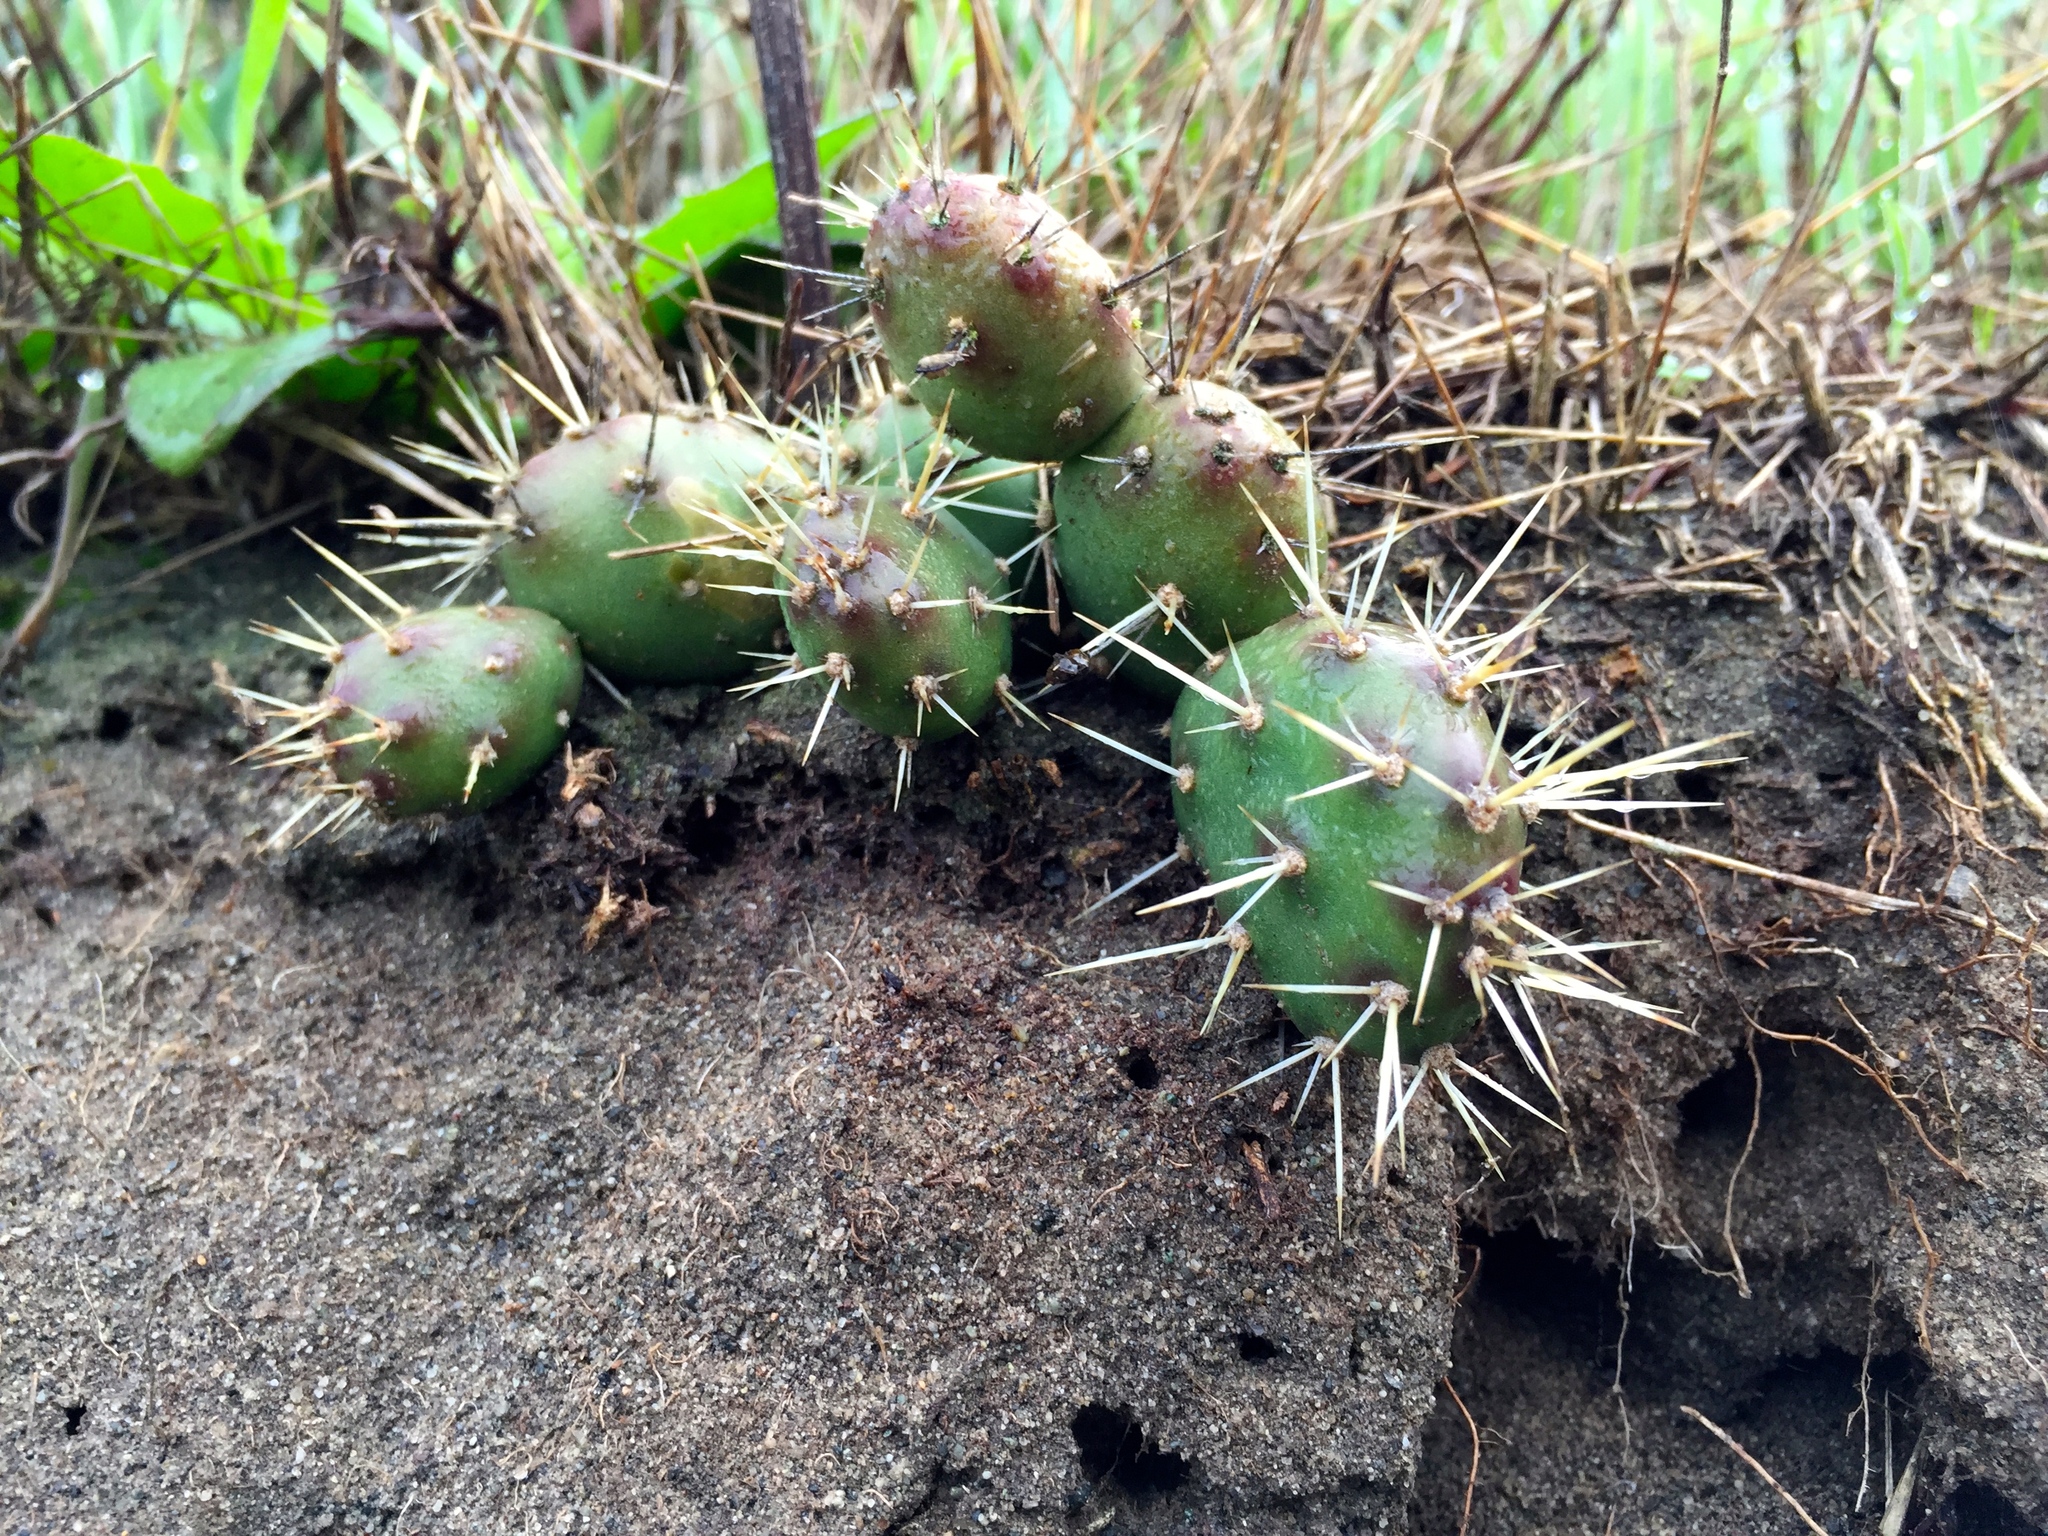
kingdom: Plantae
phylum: Tracheophyta
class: Magnoliopsida
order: Caryophyllales
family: Cactaceae
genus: Opuntia
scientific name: Opuntia fragilis
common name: Brittle cactus
